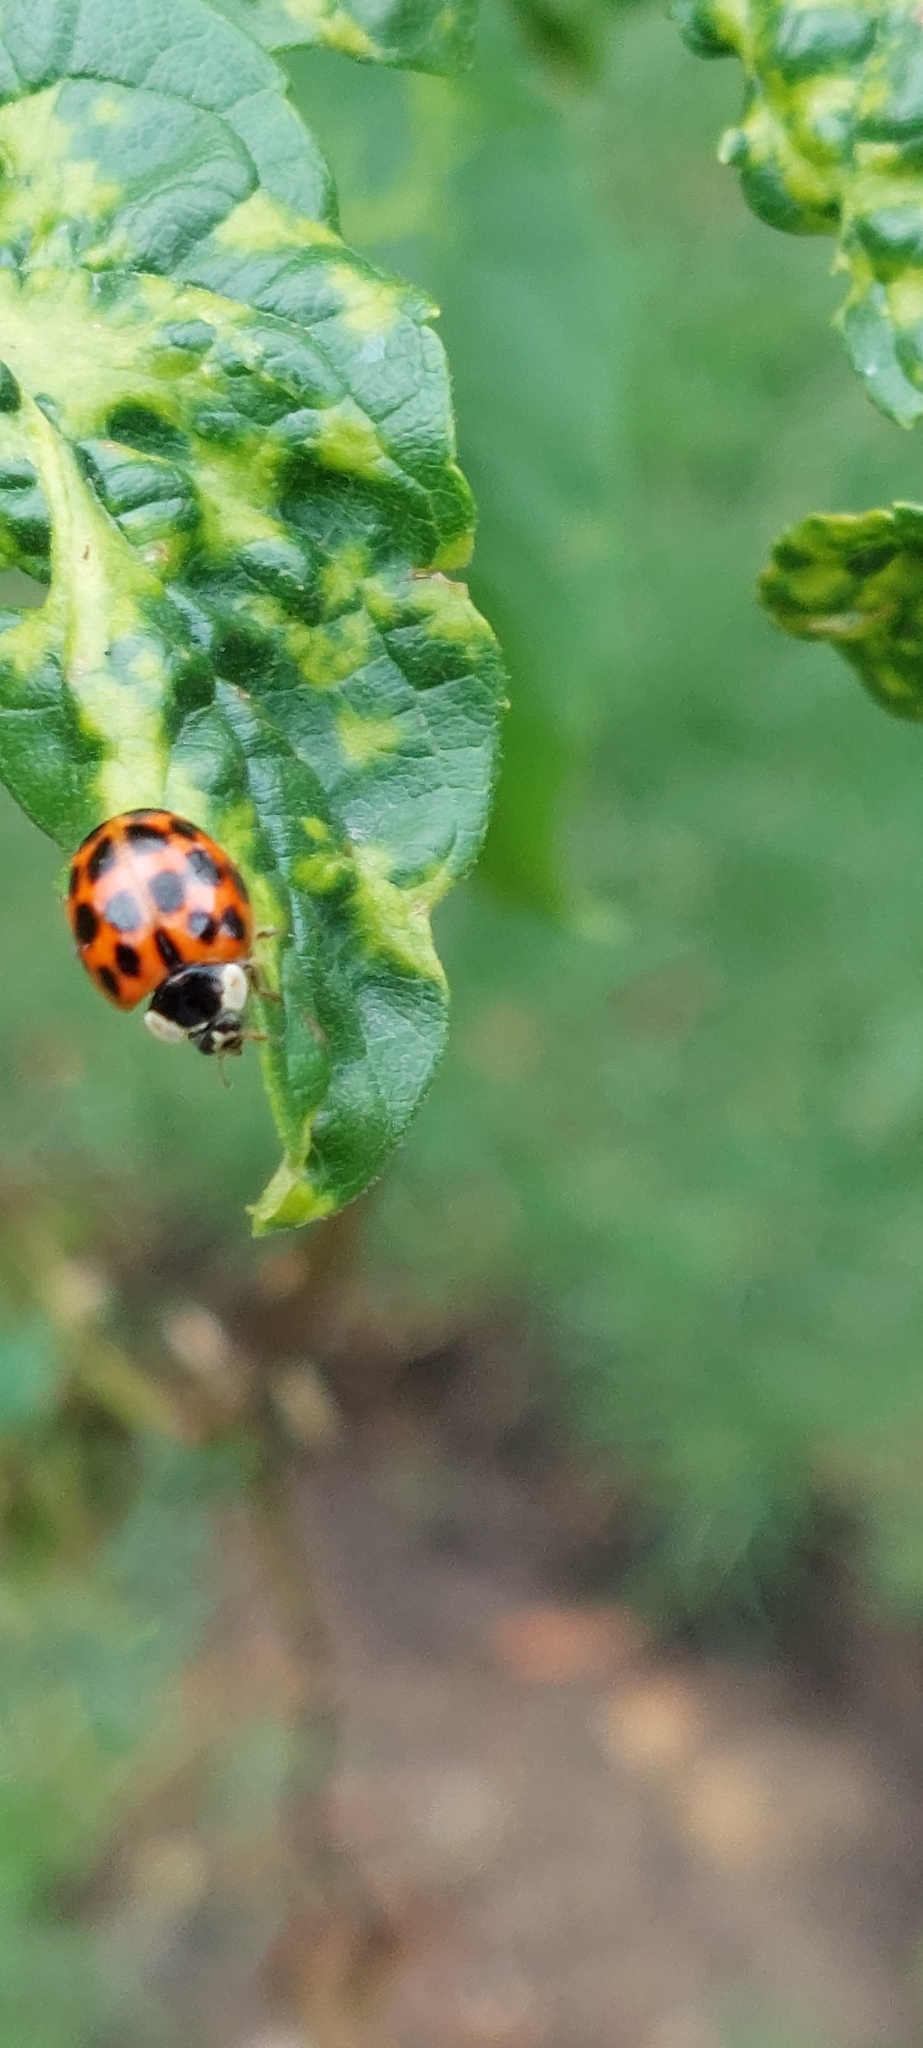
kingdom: Animalia
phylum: Arthropoda
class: Insecta
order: Coleoptera
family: Coccinellidae
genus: Harmonia
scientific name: Harmonia axyridis
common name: Harlequin ladybird
